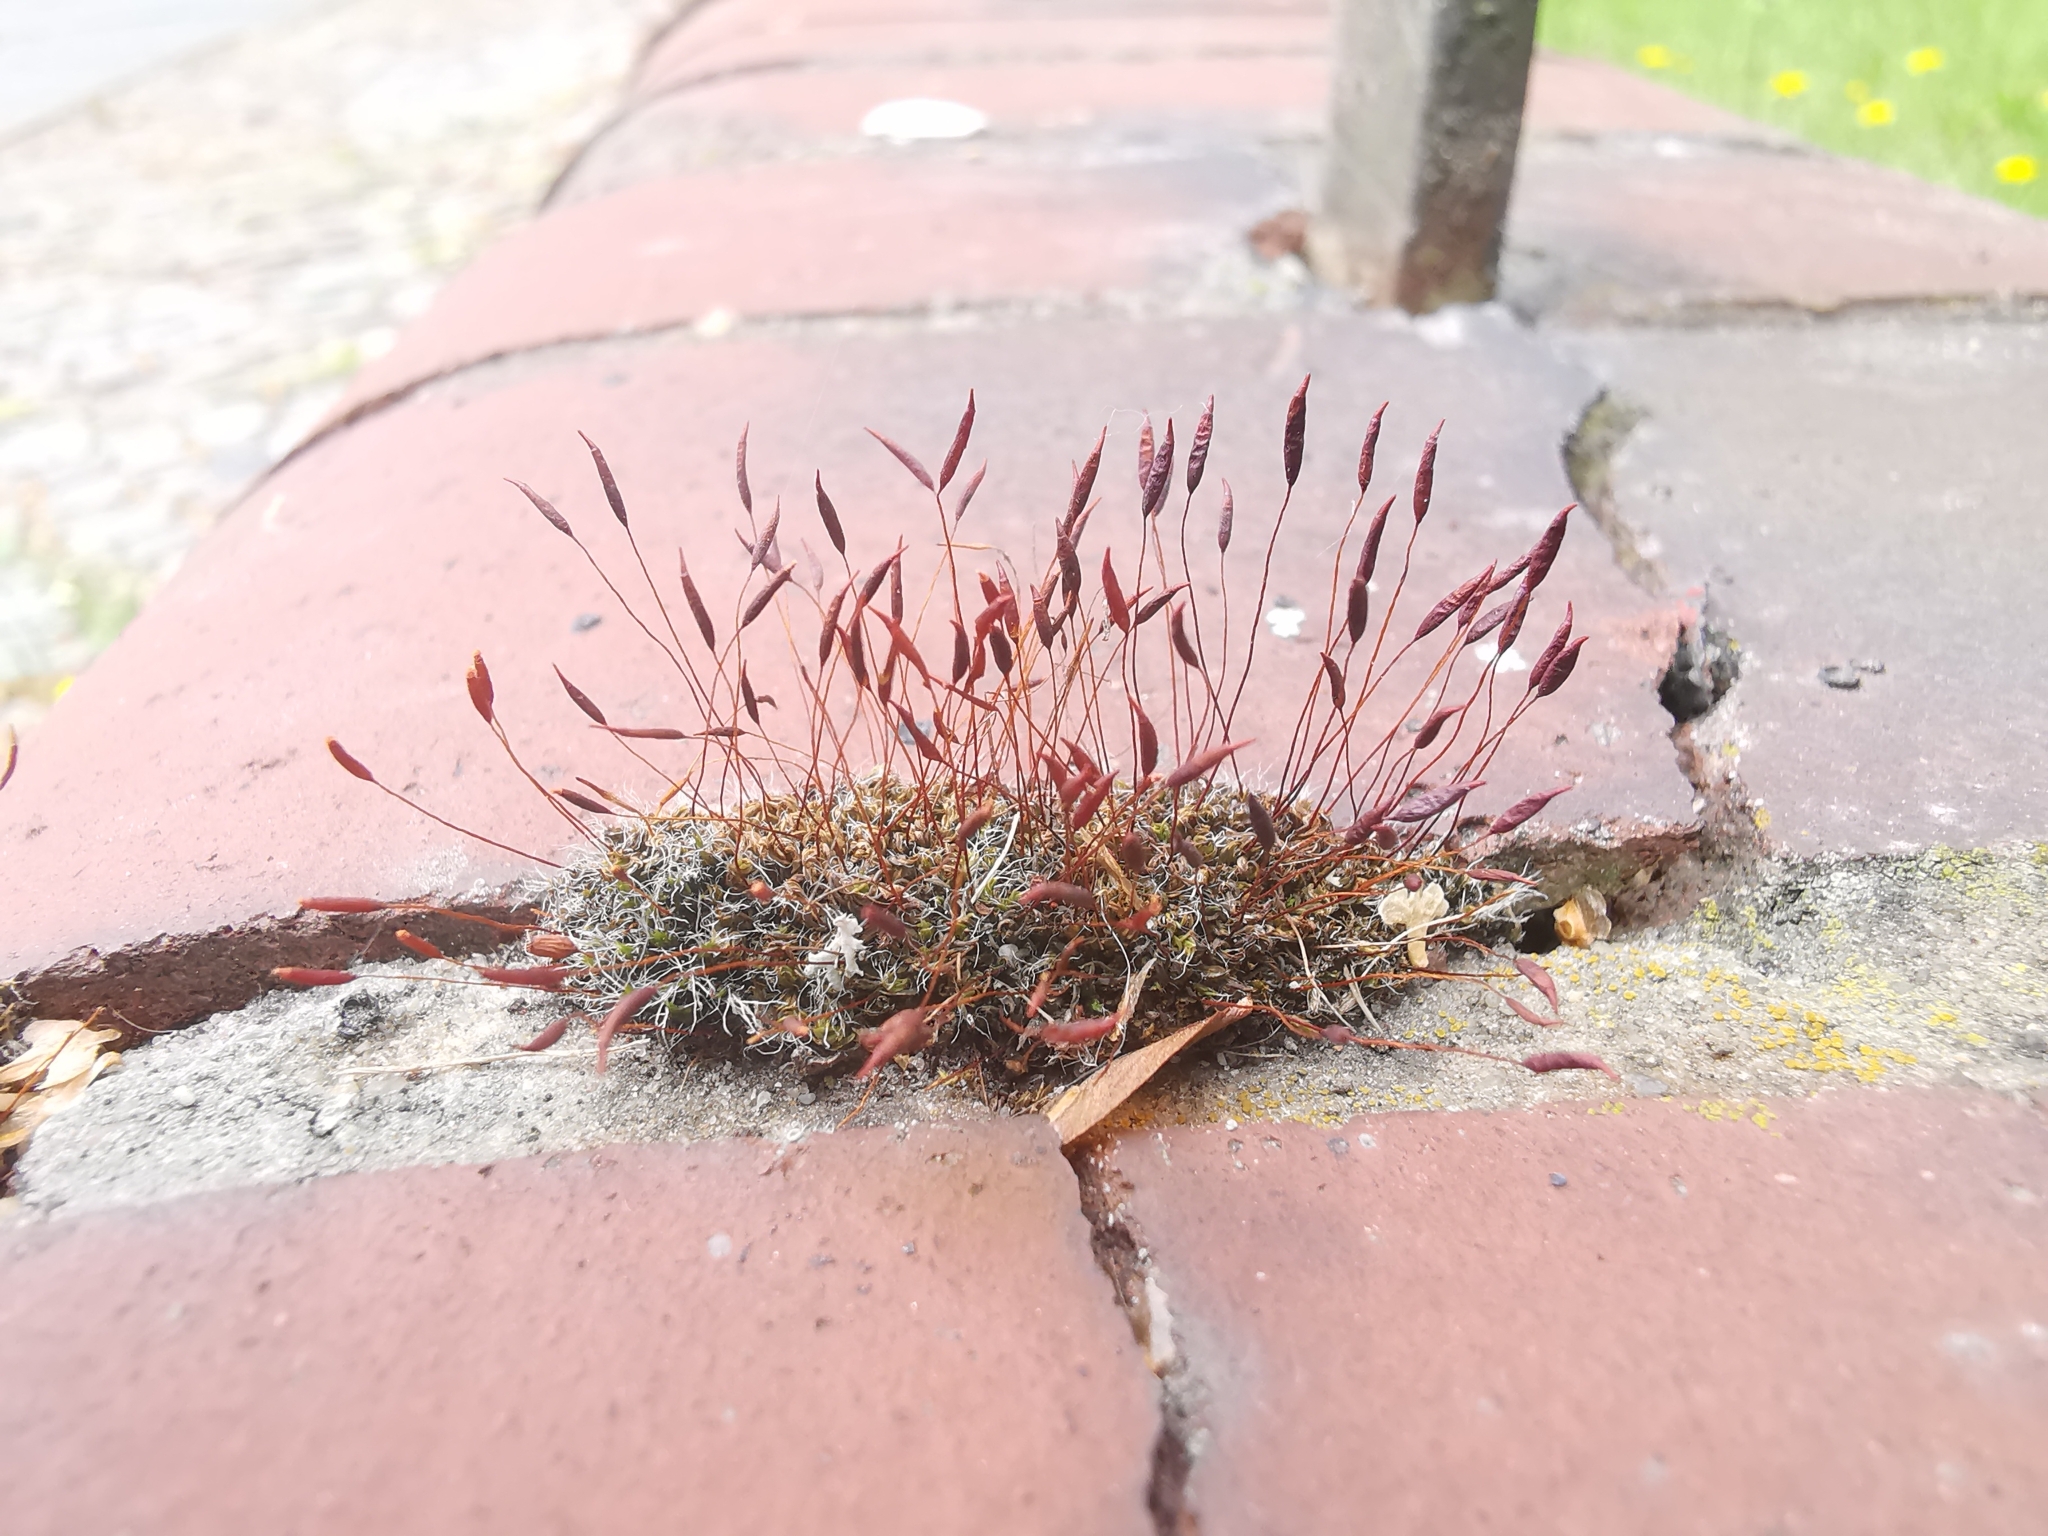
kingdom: Plantae
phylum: Bryophyta
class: Bryopsida
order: Pottiales
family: Pottiaceae
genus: Tortula
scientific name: Tortula muralis
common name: Wall screw-moss
